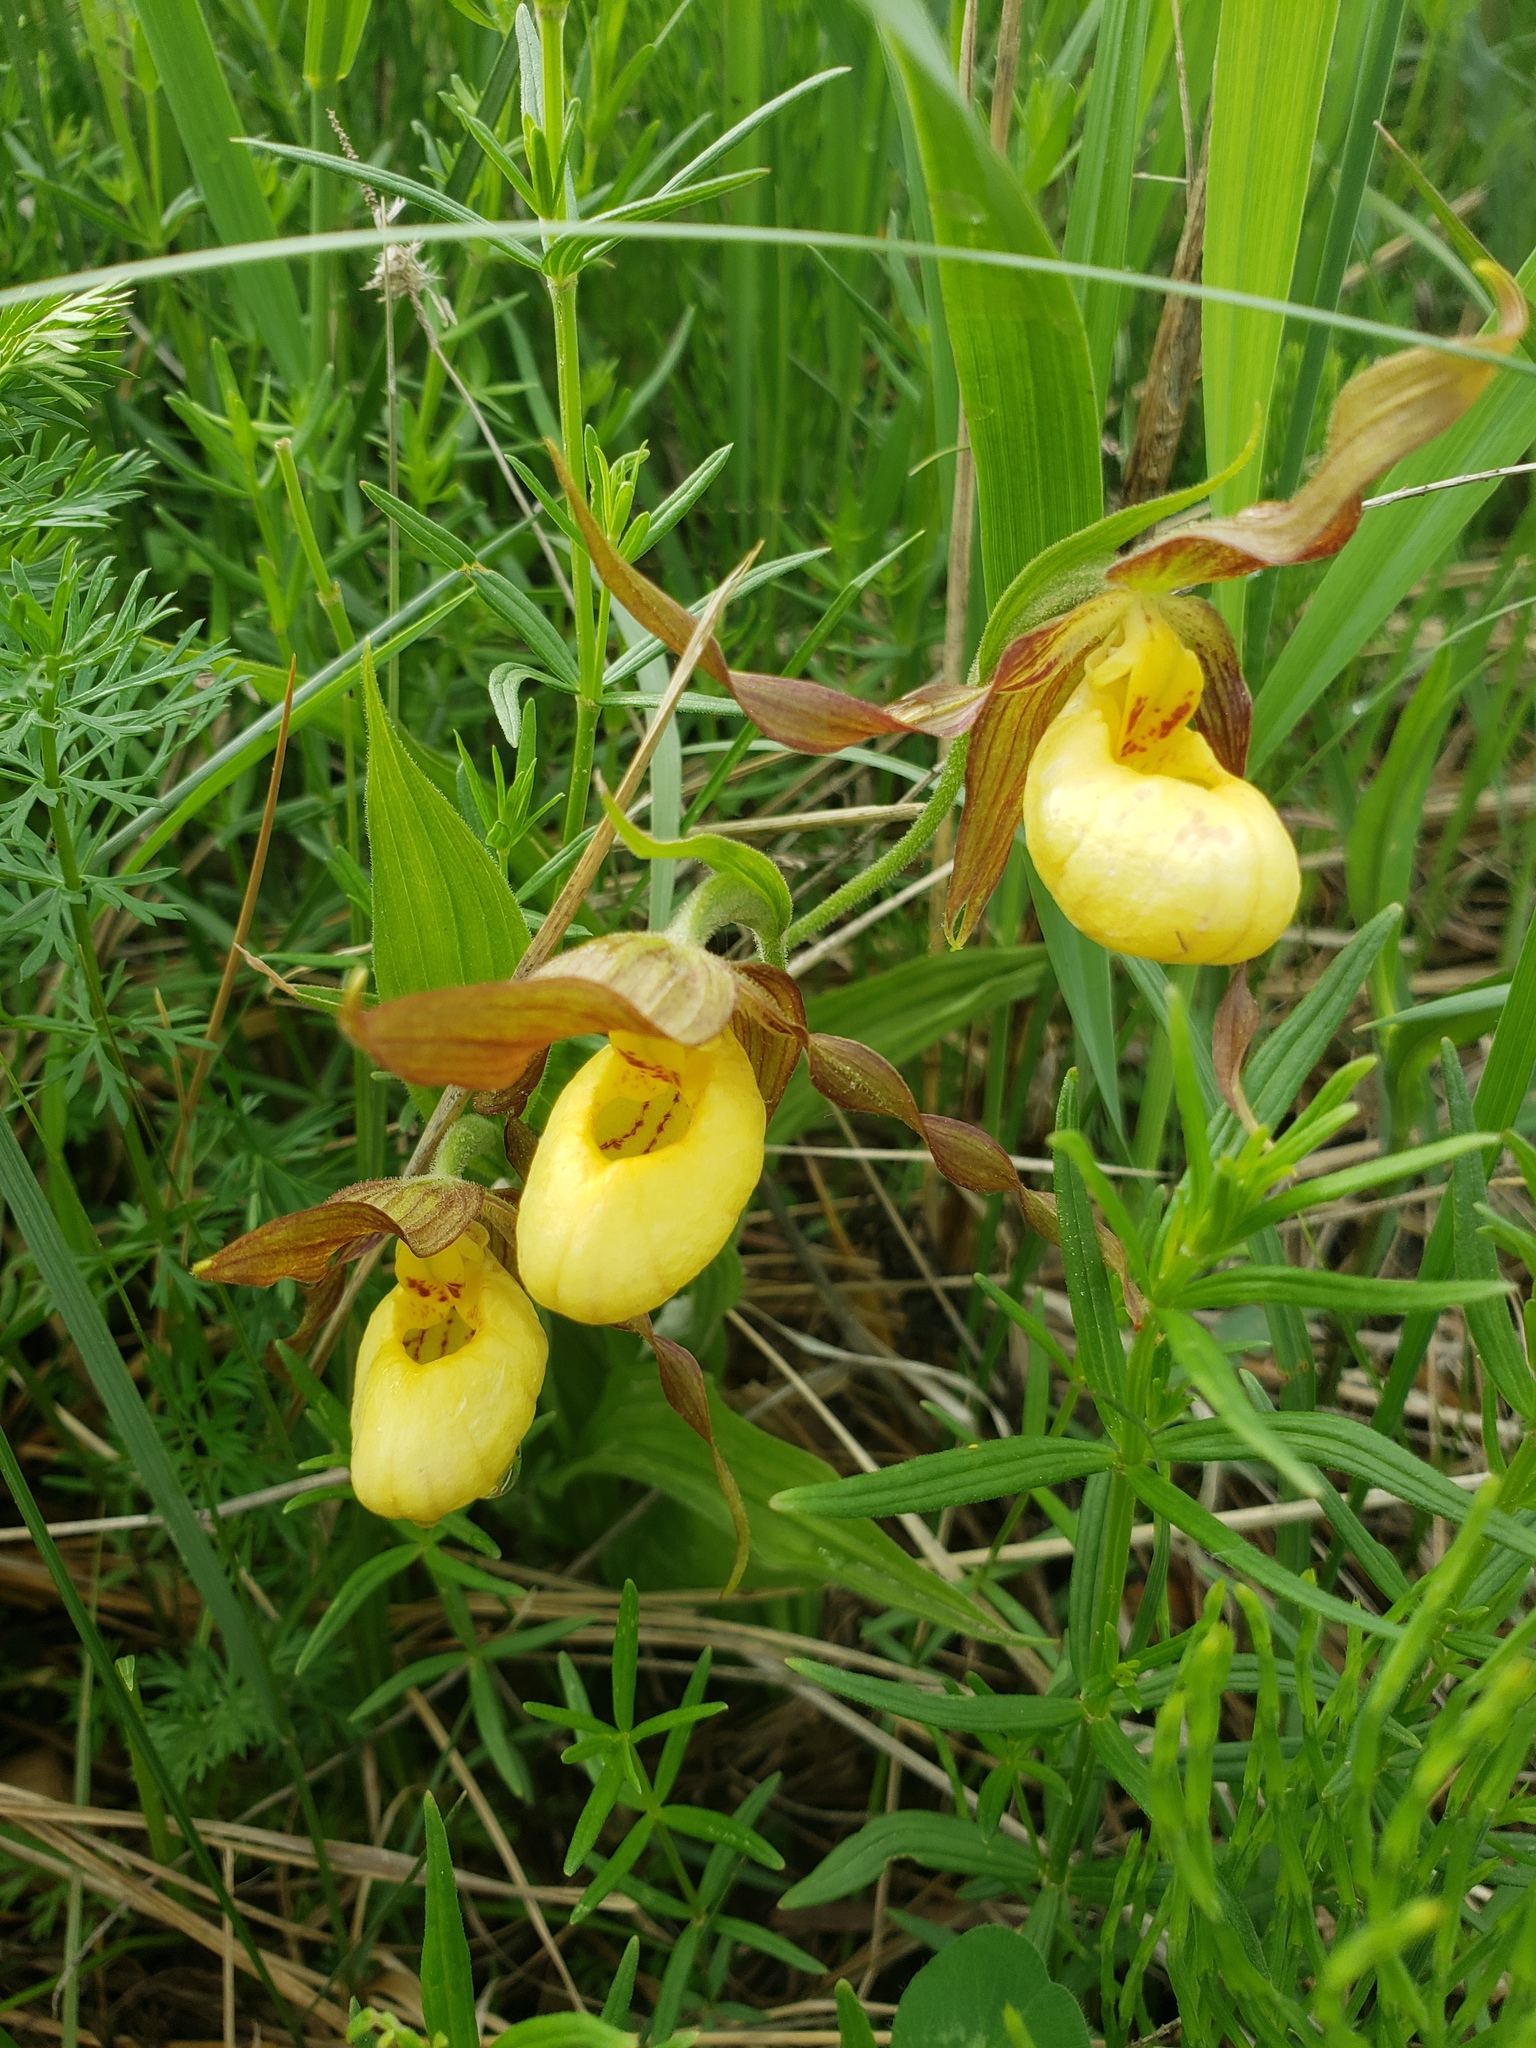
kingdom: Plantae
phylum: Tracheophyta
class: Liliopsida
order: Asparagales
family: Orchidaceae
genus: Cypripedium
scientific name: Cypripedium parviflorum
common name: American yellow lady's-slipper
